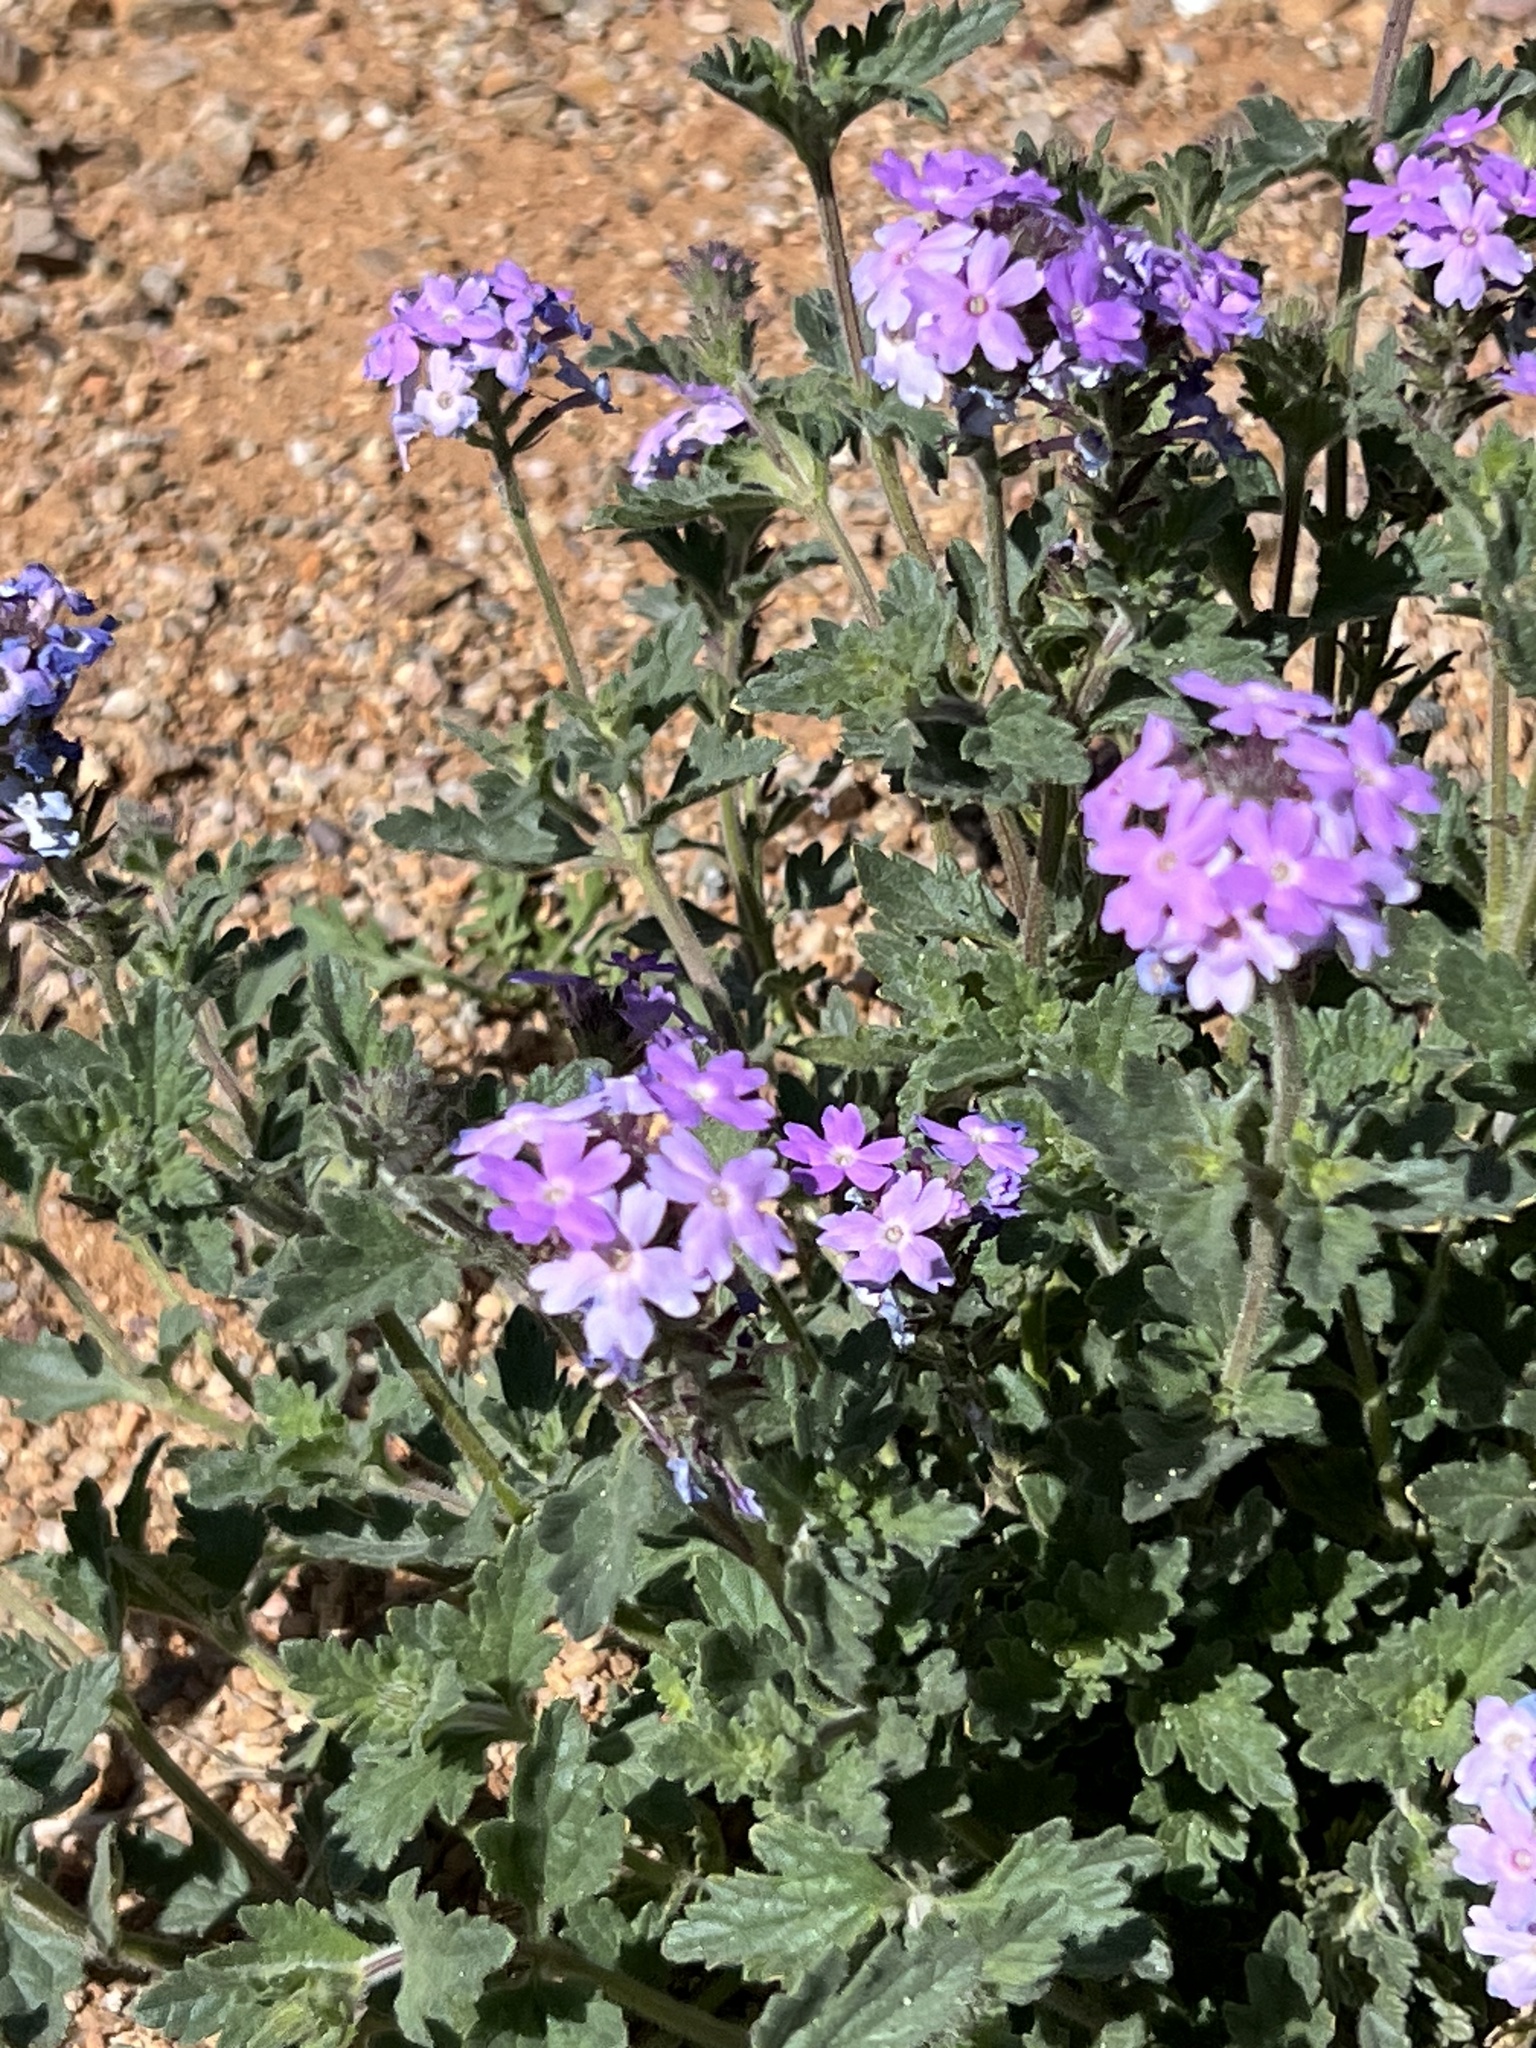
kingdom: Plantae
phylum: Tracheophyta
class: Magnoliopsida
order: Lamiales
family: Verbenaceae
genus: Verbena
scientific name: Verbena gooddingii
